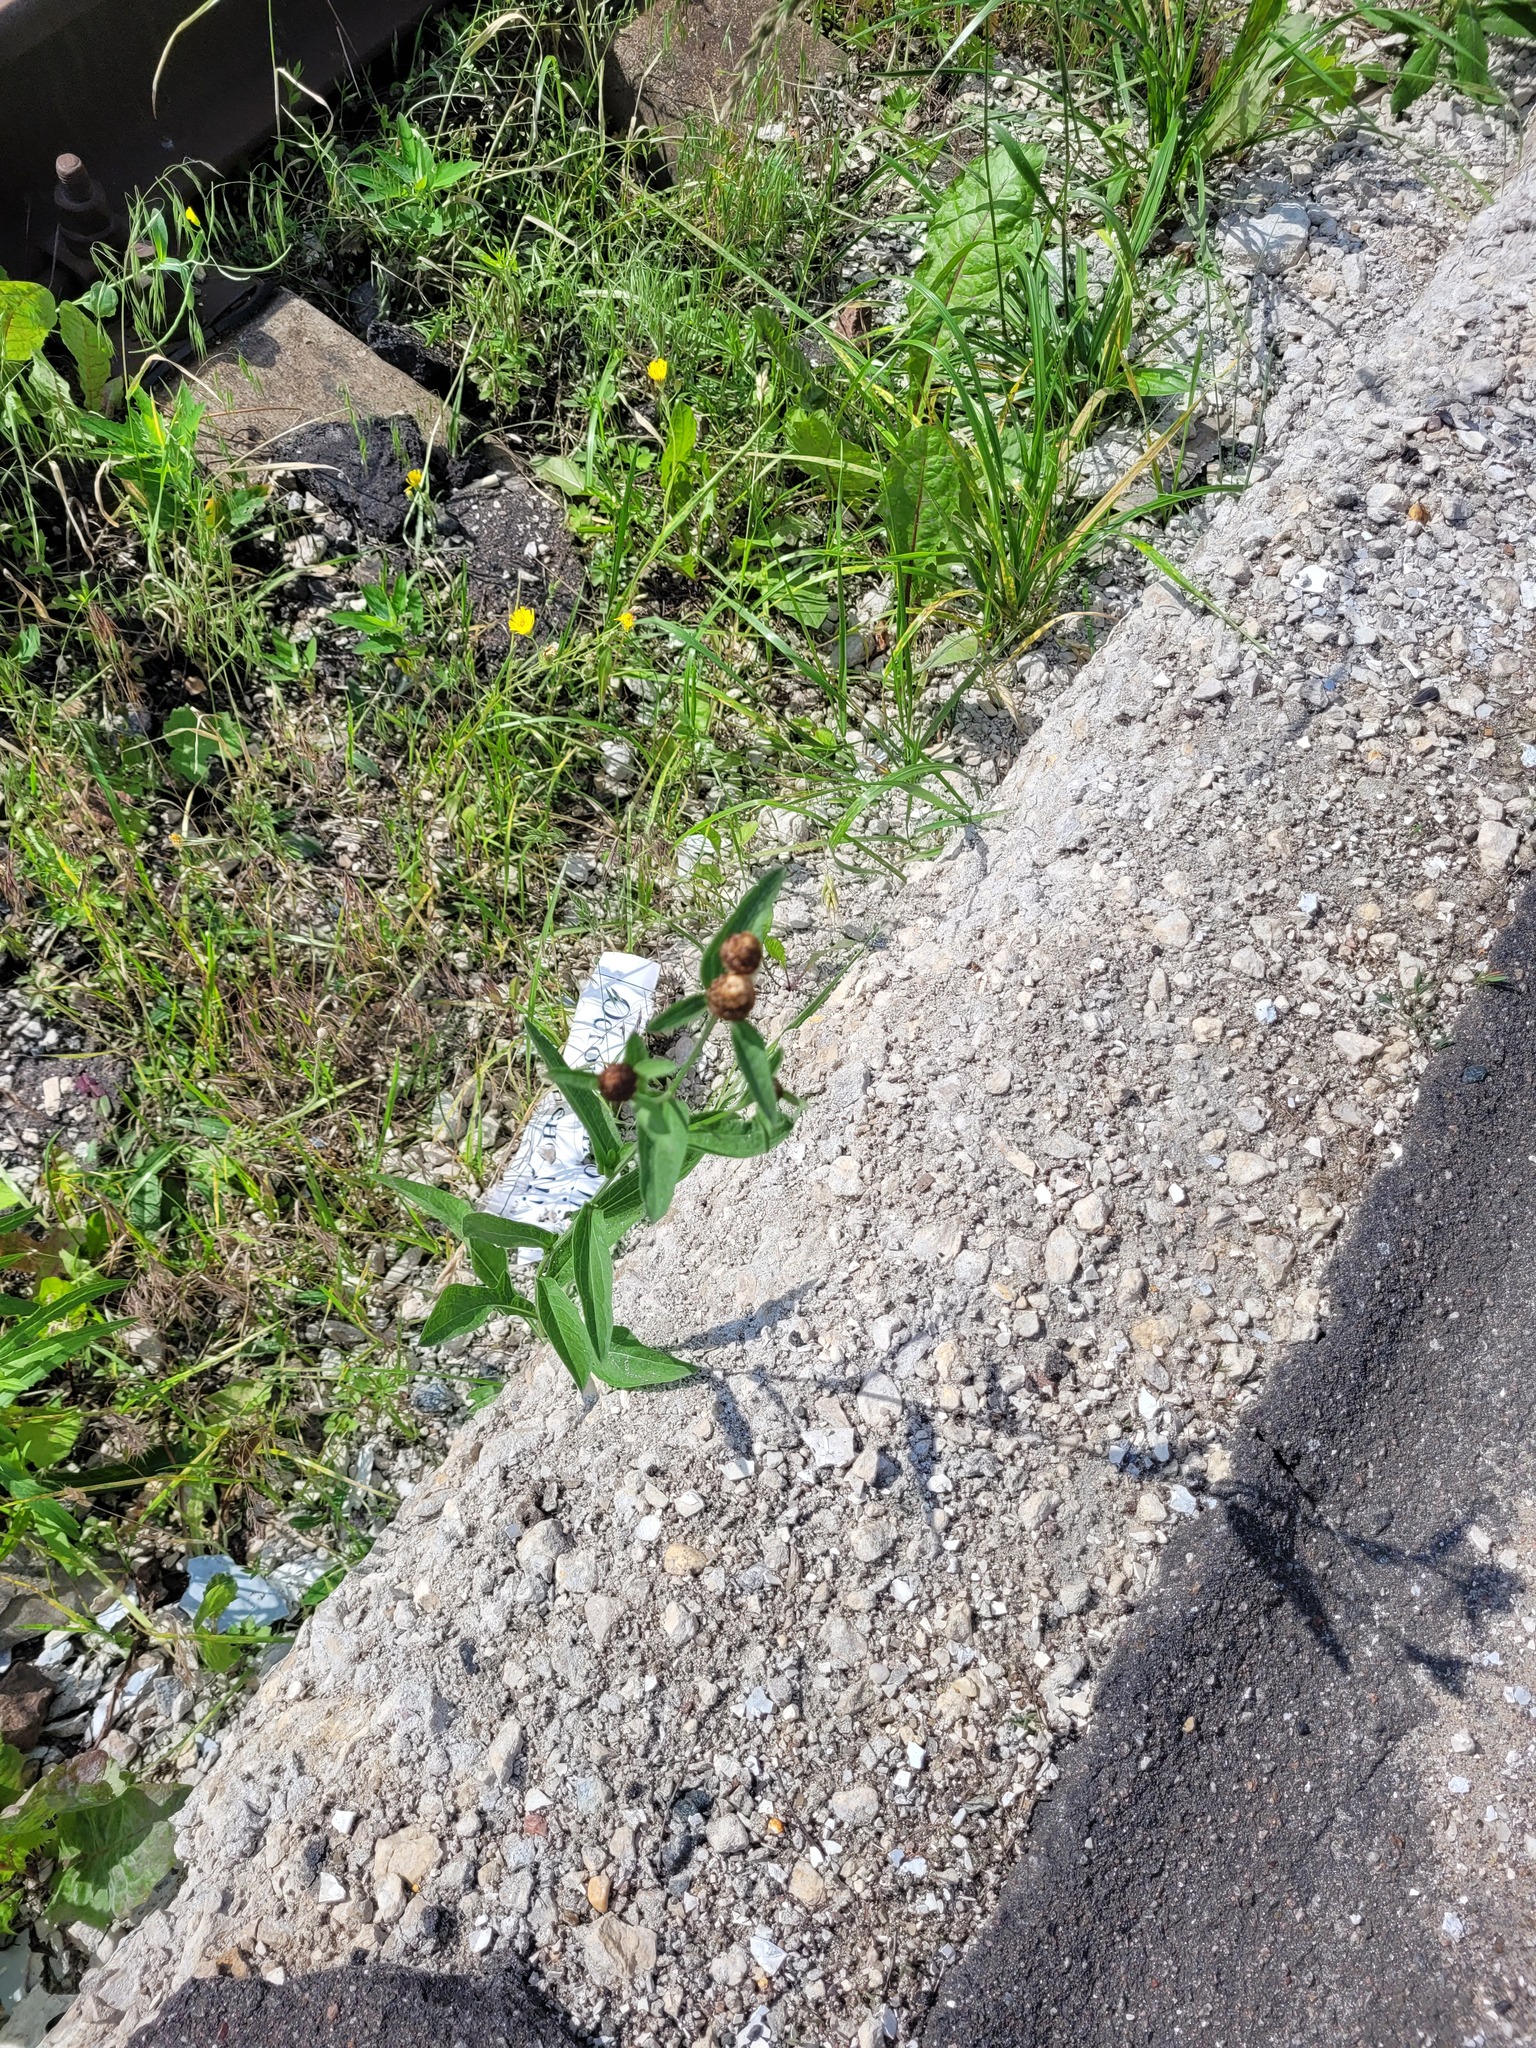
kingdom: Plantae
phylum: Tracheophyta
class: Magnoliopsida
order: Asterales
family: Asteraceae
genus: Centaurea
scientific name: Centaurea jacea
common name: Brown knapweed
